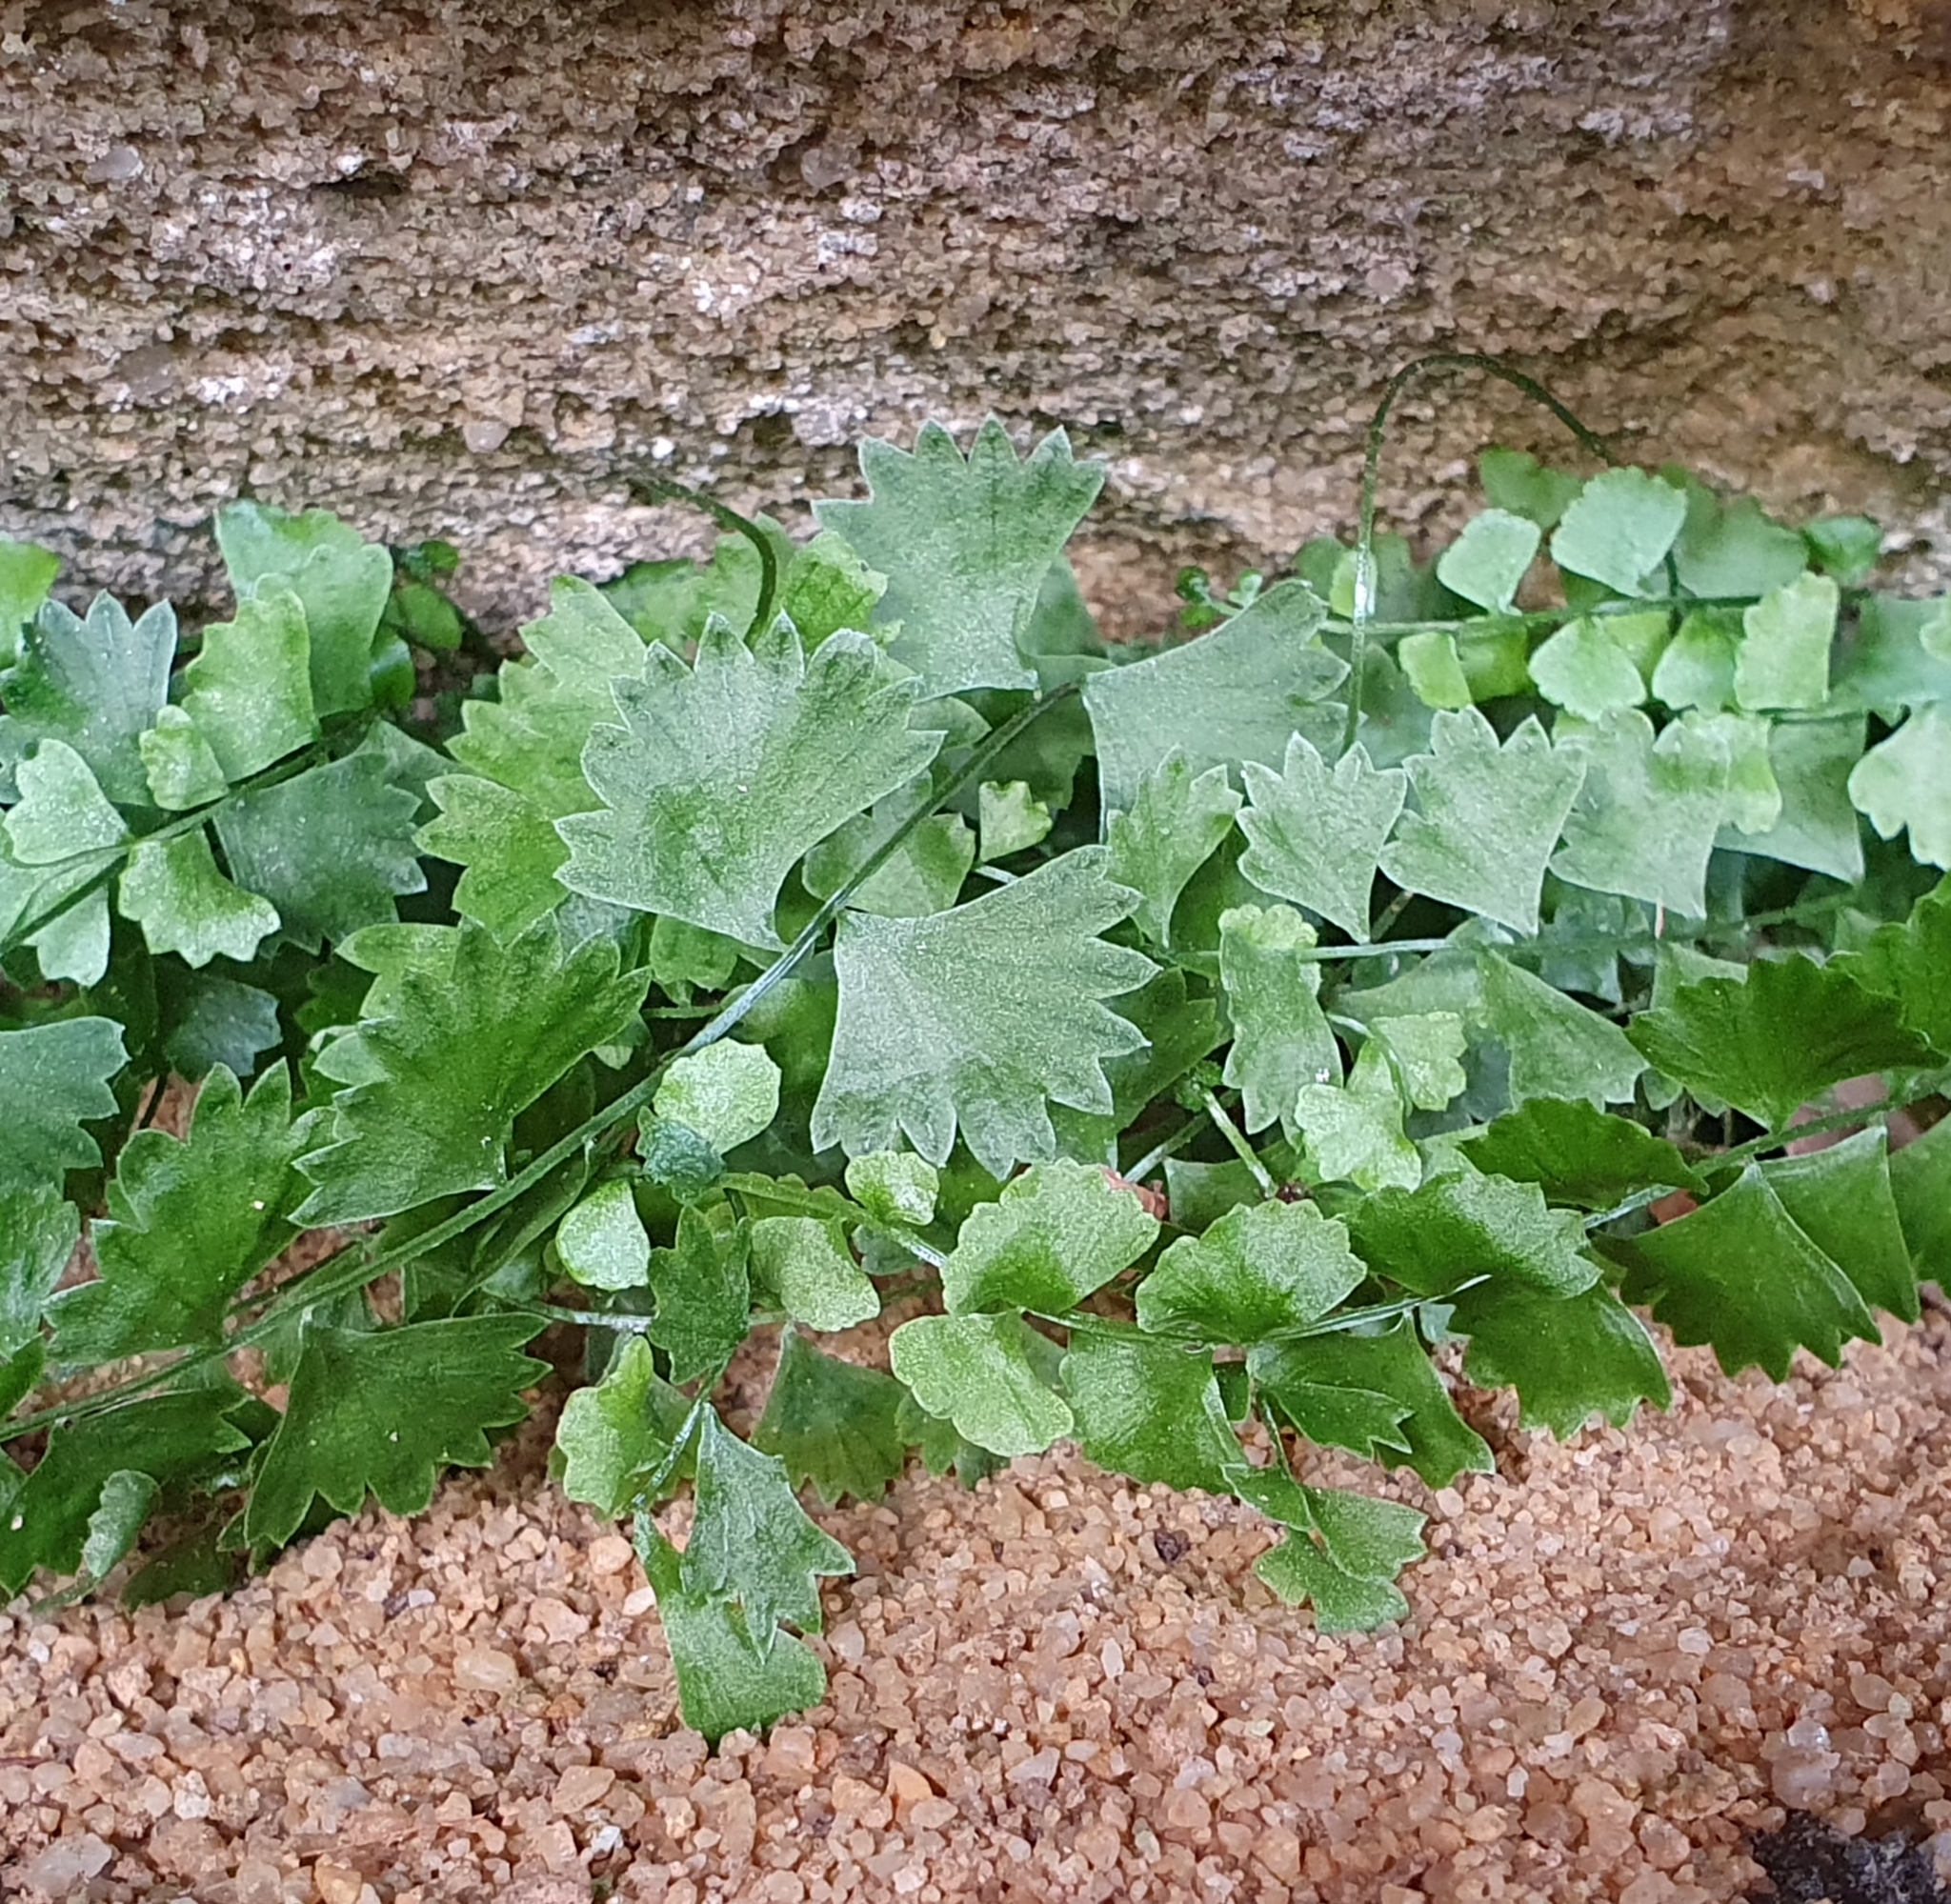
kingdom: Plantae
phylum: Tracheophyta
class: Polypodiopsida
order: Polypodiales
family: Aspleniaceae
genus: Asplenium
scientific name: Asplenium flabellifolium
